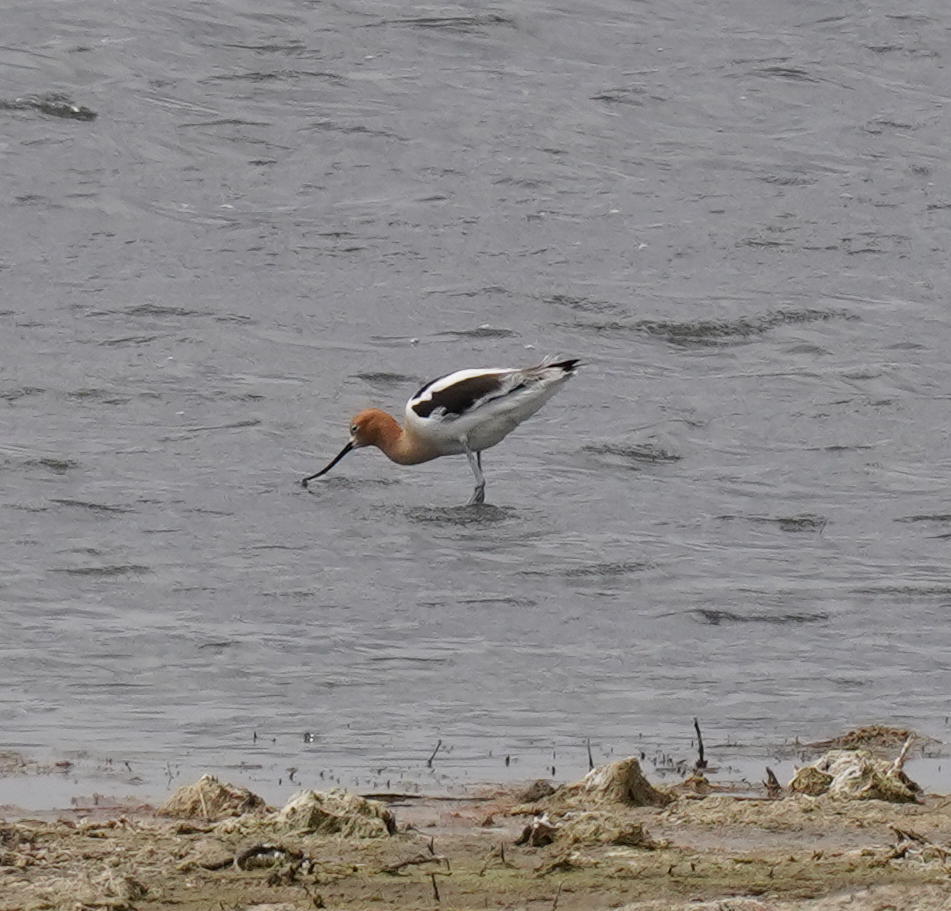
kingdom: Animalia
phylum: Chordata
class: Aves
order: Charadriiformes
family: Recurvirostridae
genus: Recurvirostra
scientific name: Recurvirostra americana
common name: American avocet
